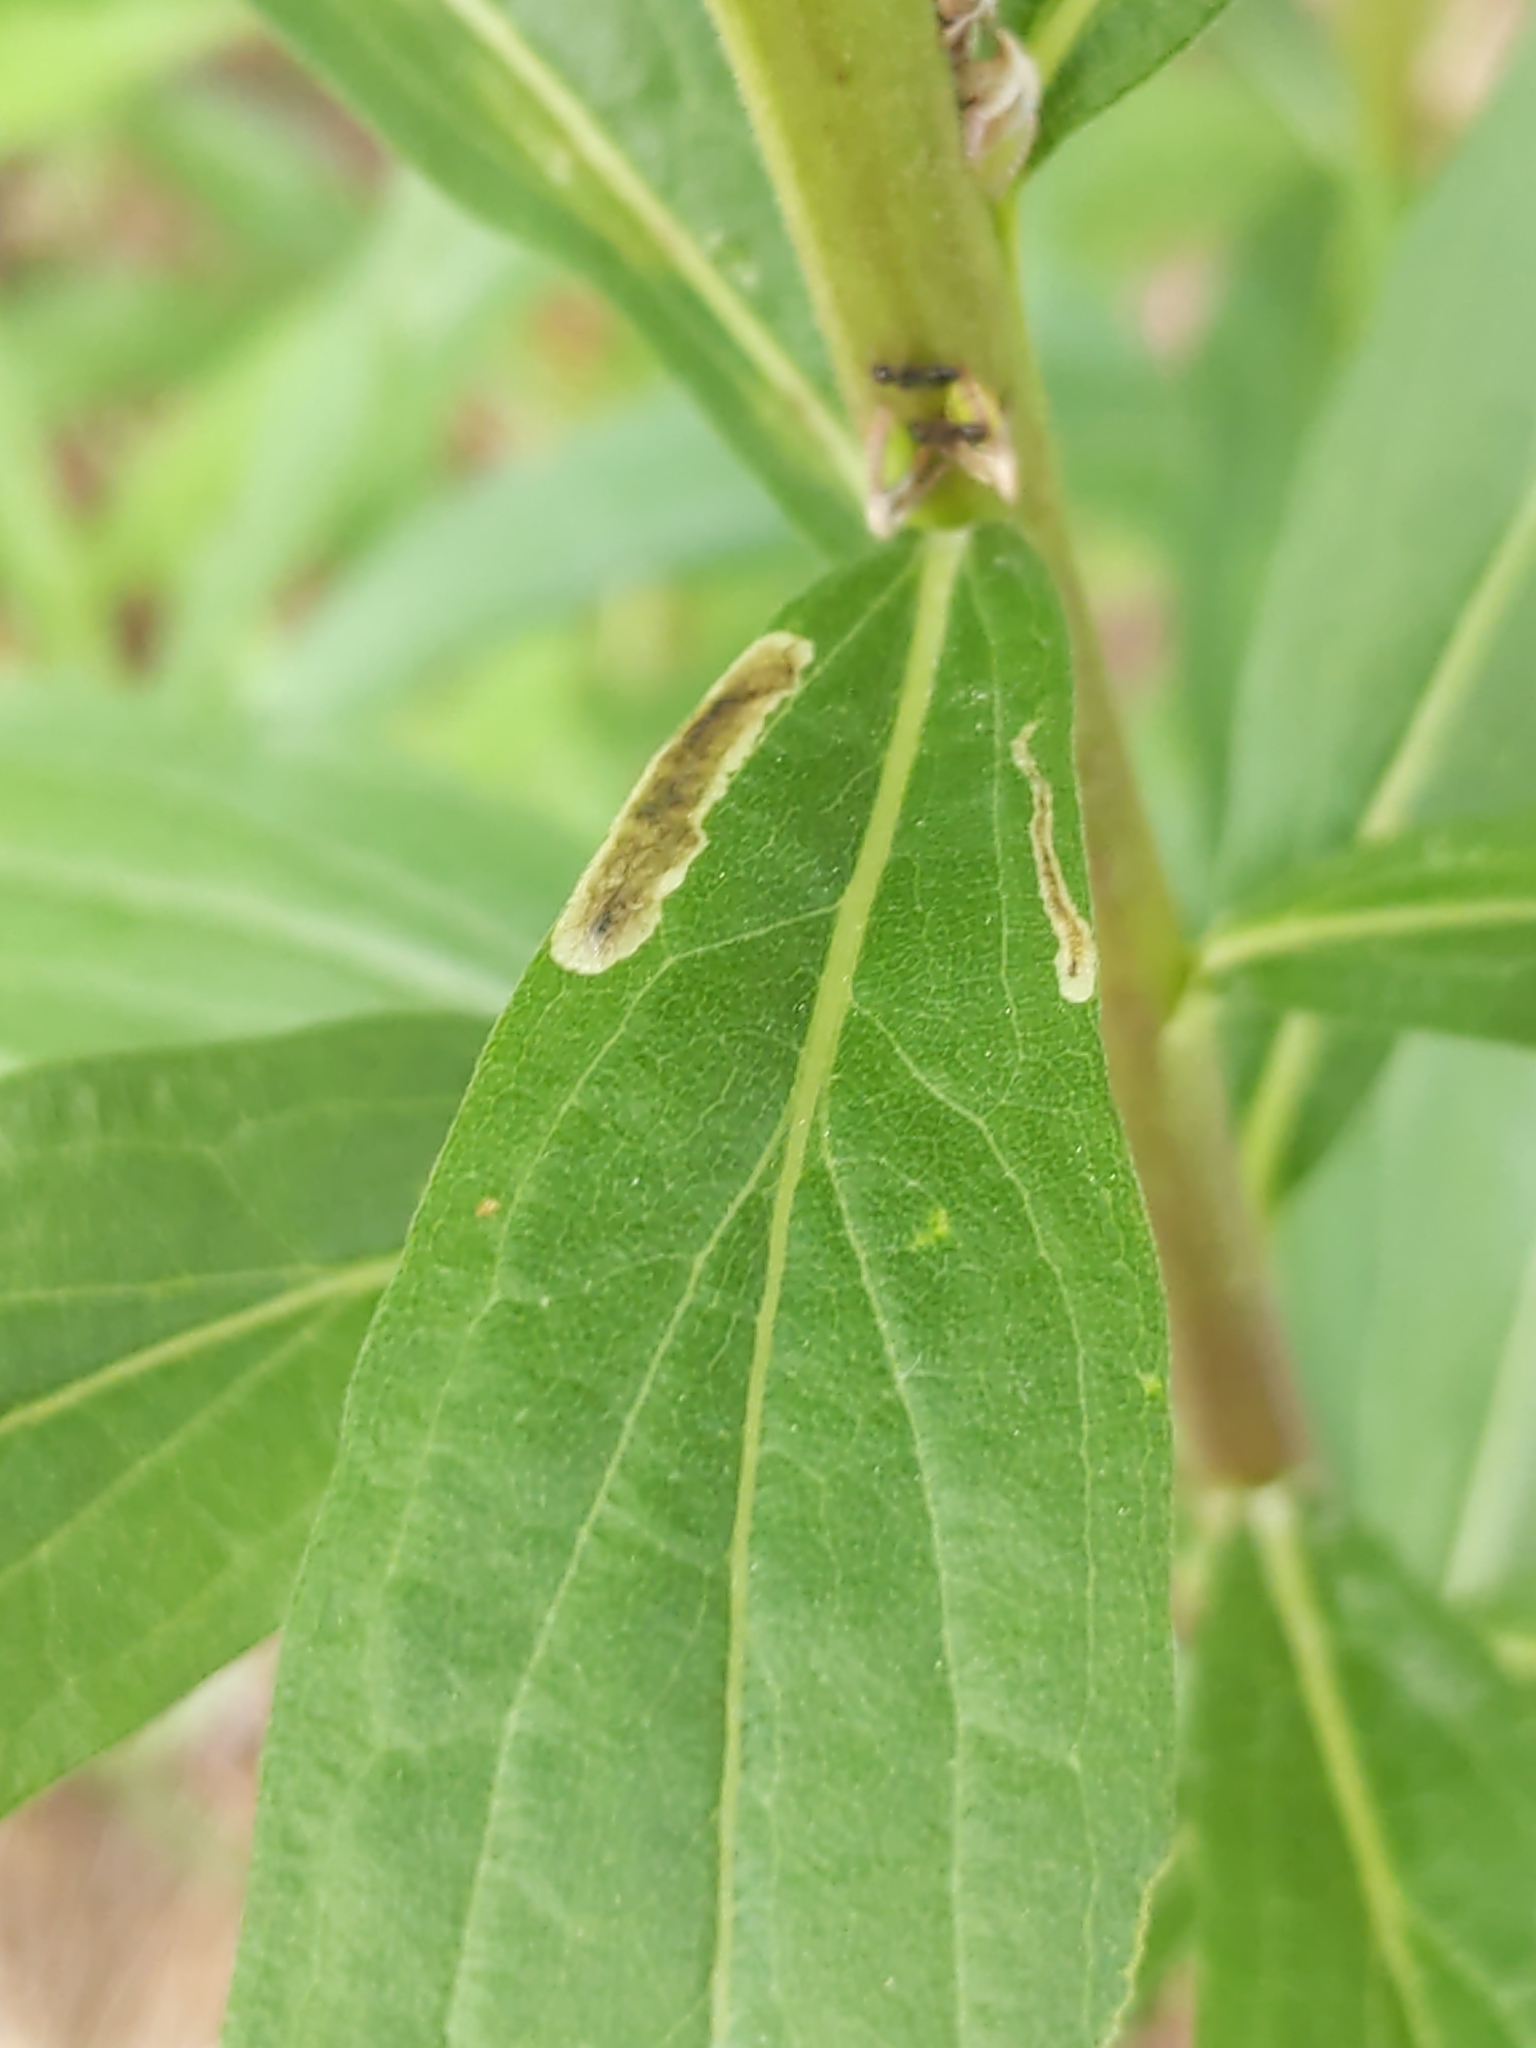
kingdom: Animalia
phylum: Arthropoda
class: Insecta
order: Diptera
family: Agromyzidae
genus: Calycomyza
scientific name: Calycomyza solidaginis
